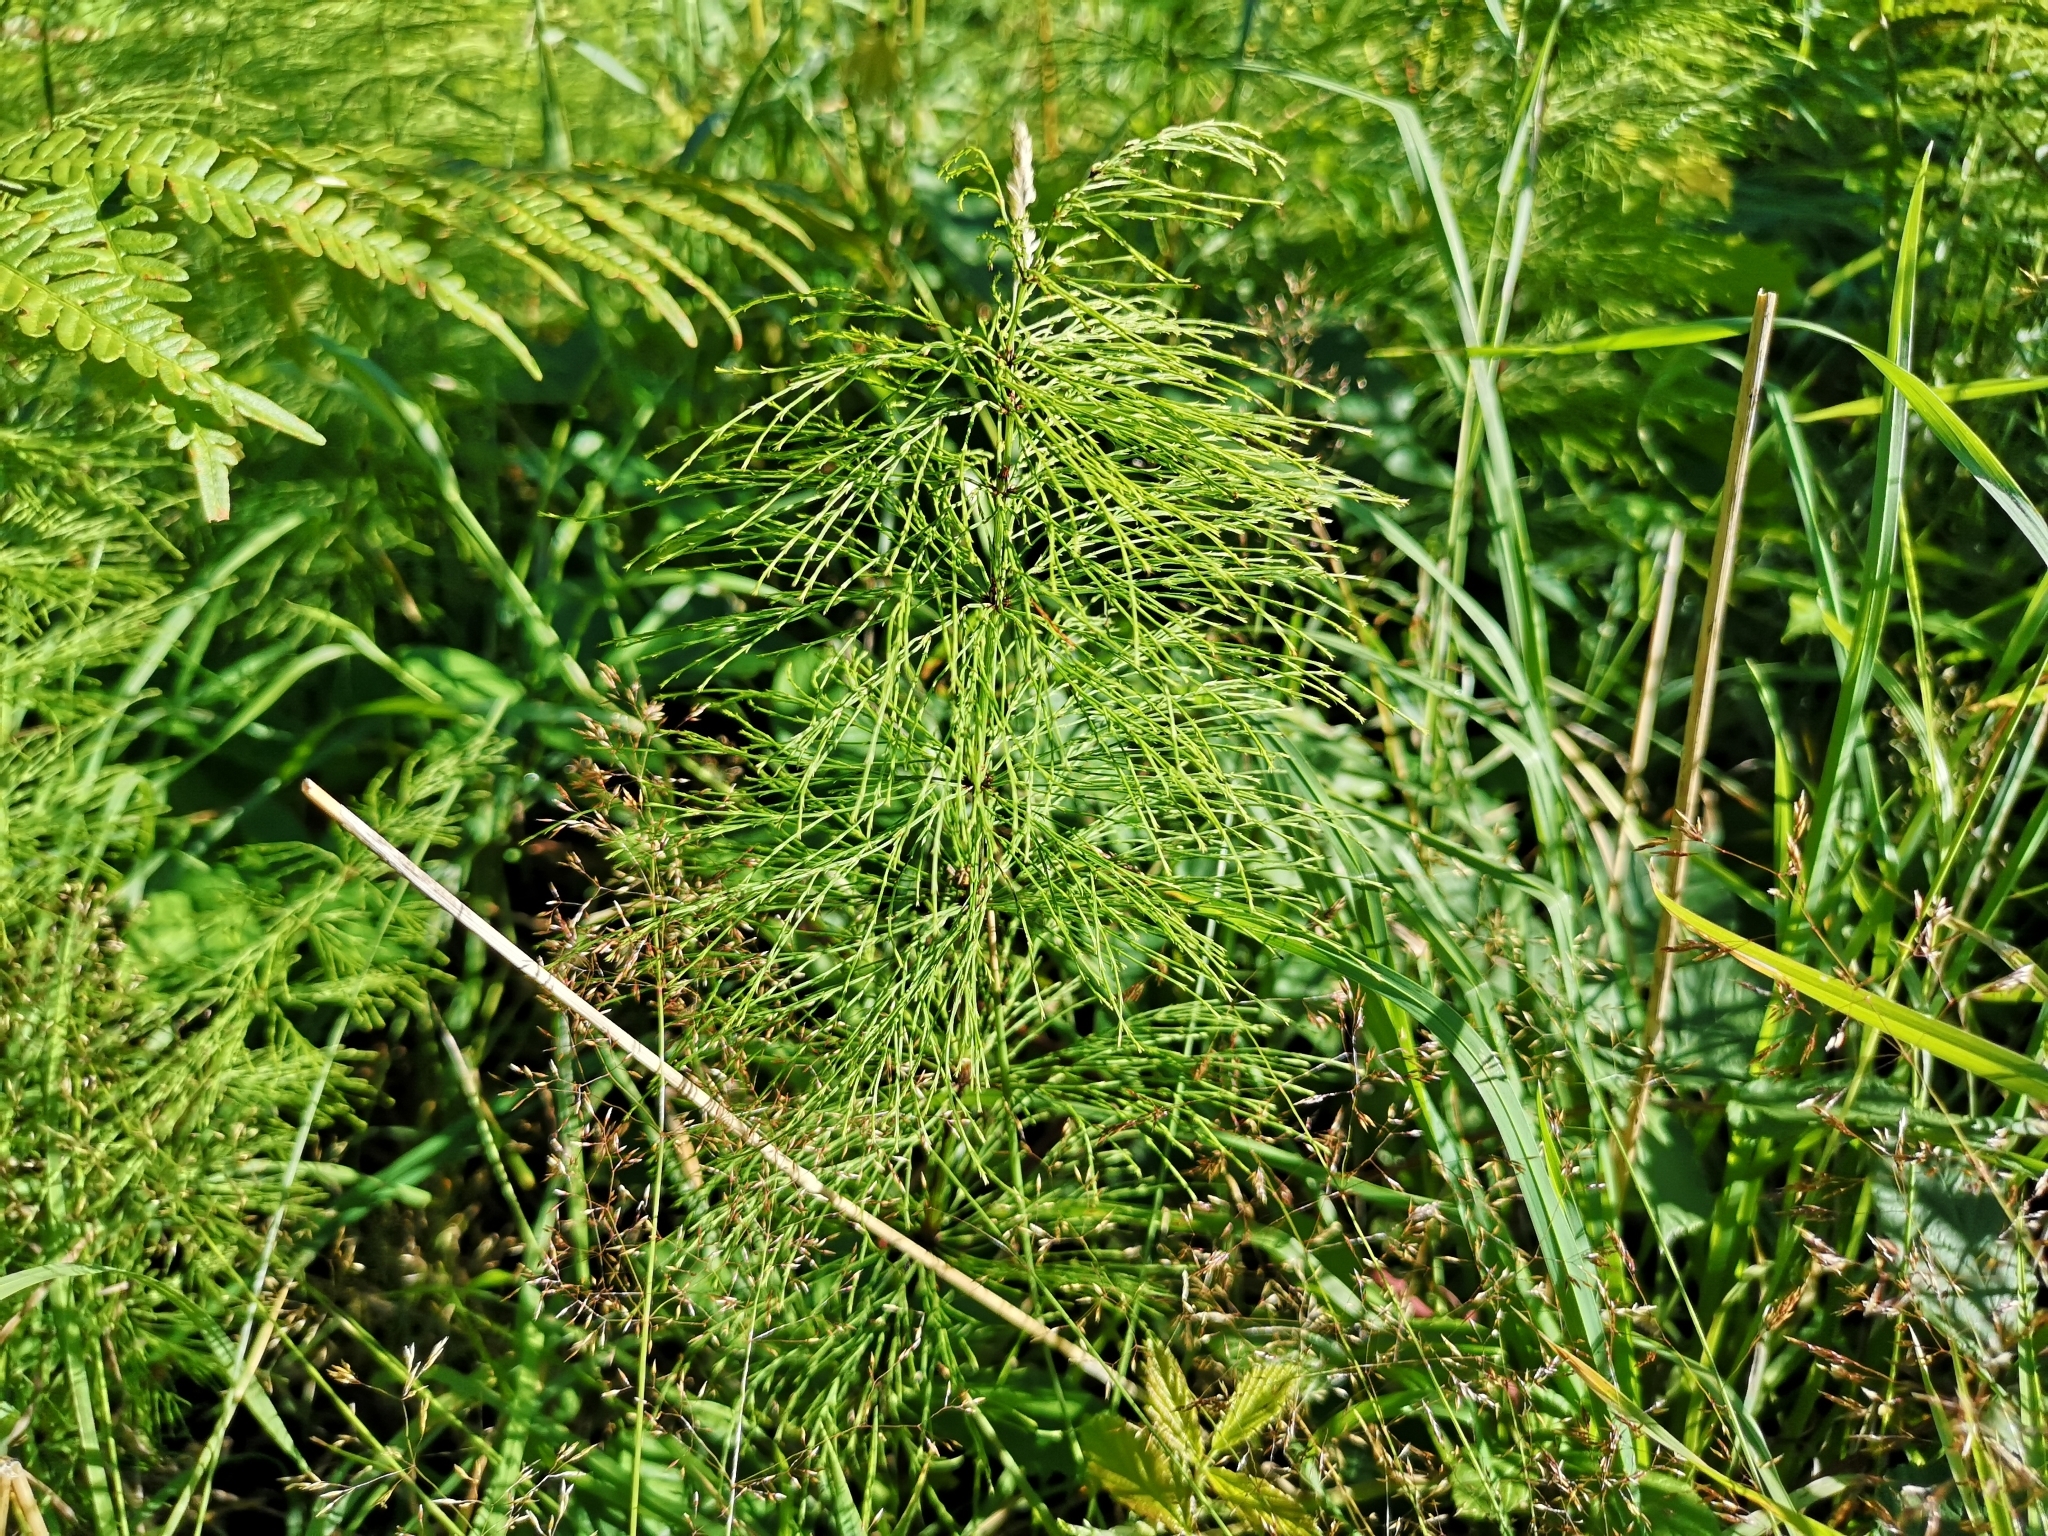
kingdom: Plantae
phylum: Tracheophyta
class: Polypodiopsida
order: Equisetales
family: Equisetaceae
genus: Equisetum
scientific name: Equisetum sylvaticum
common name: Wood horsetail
